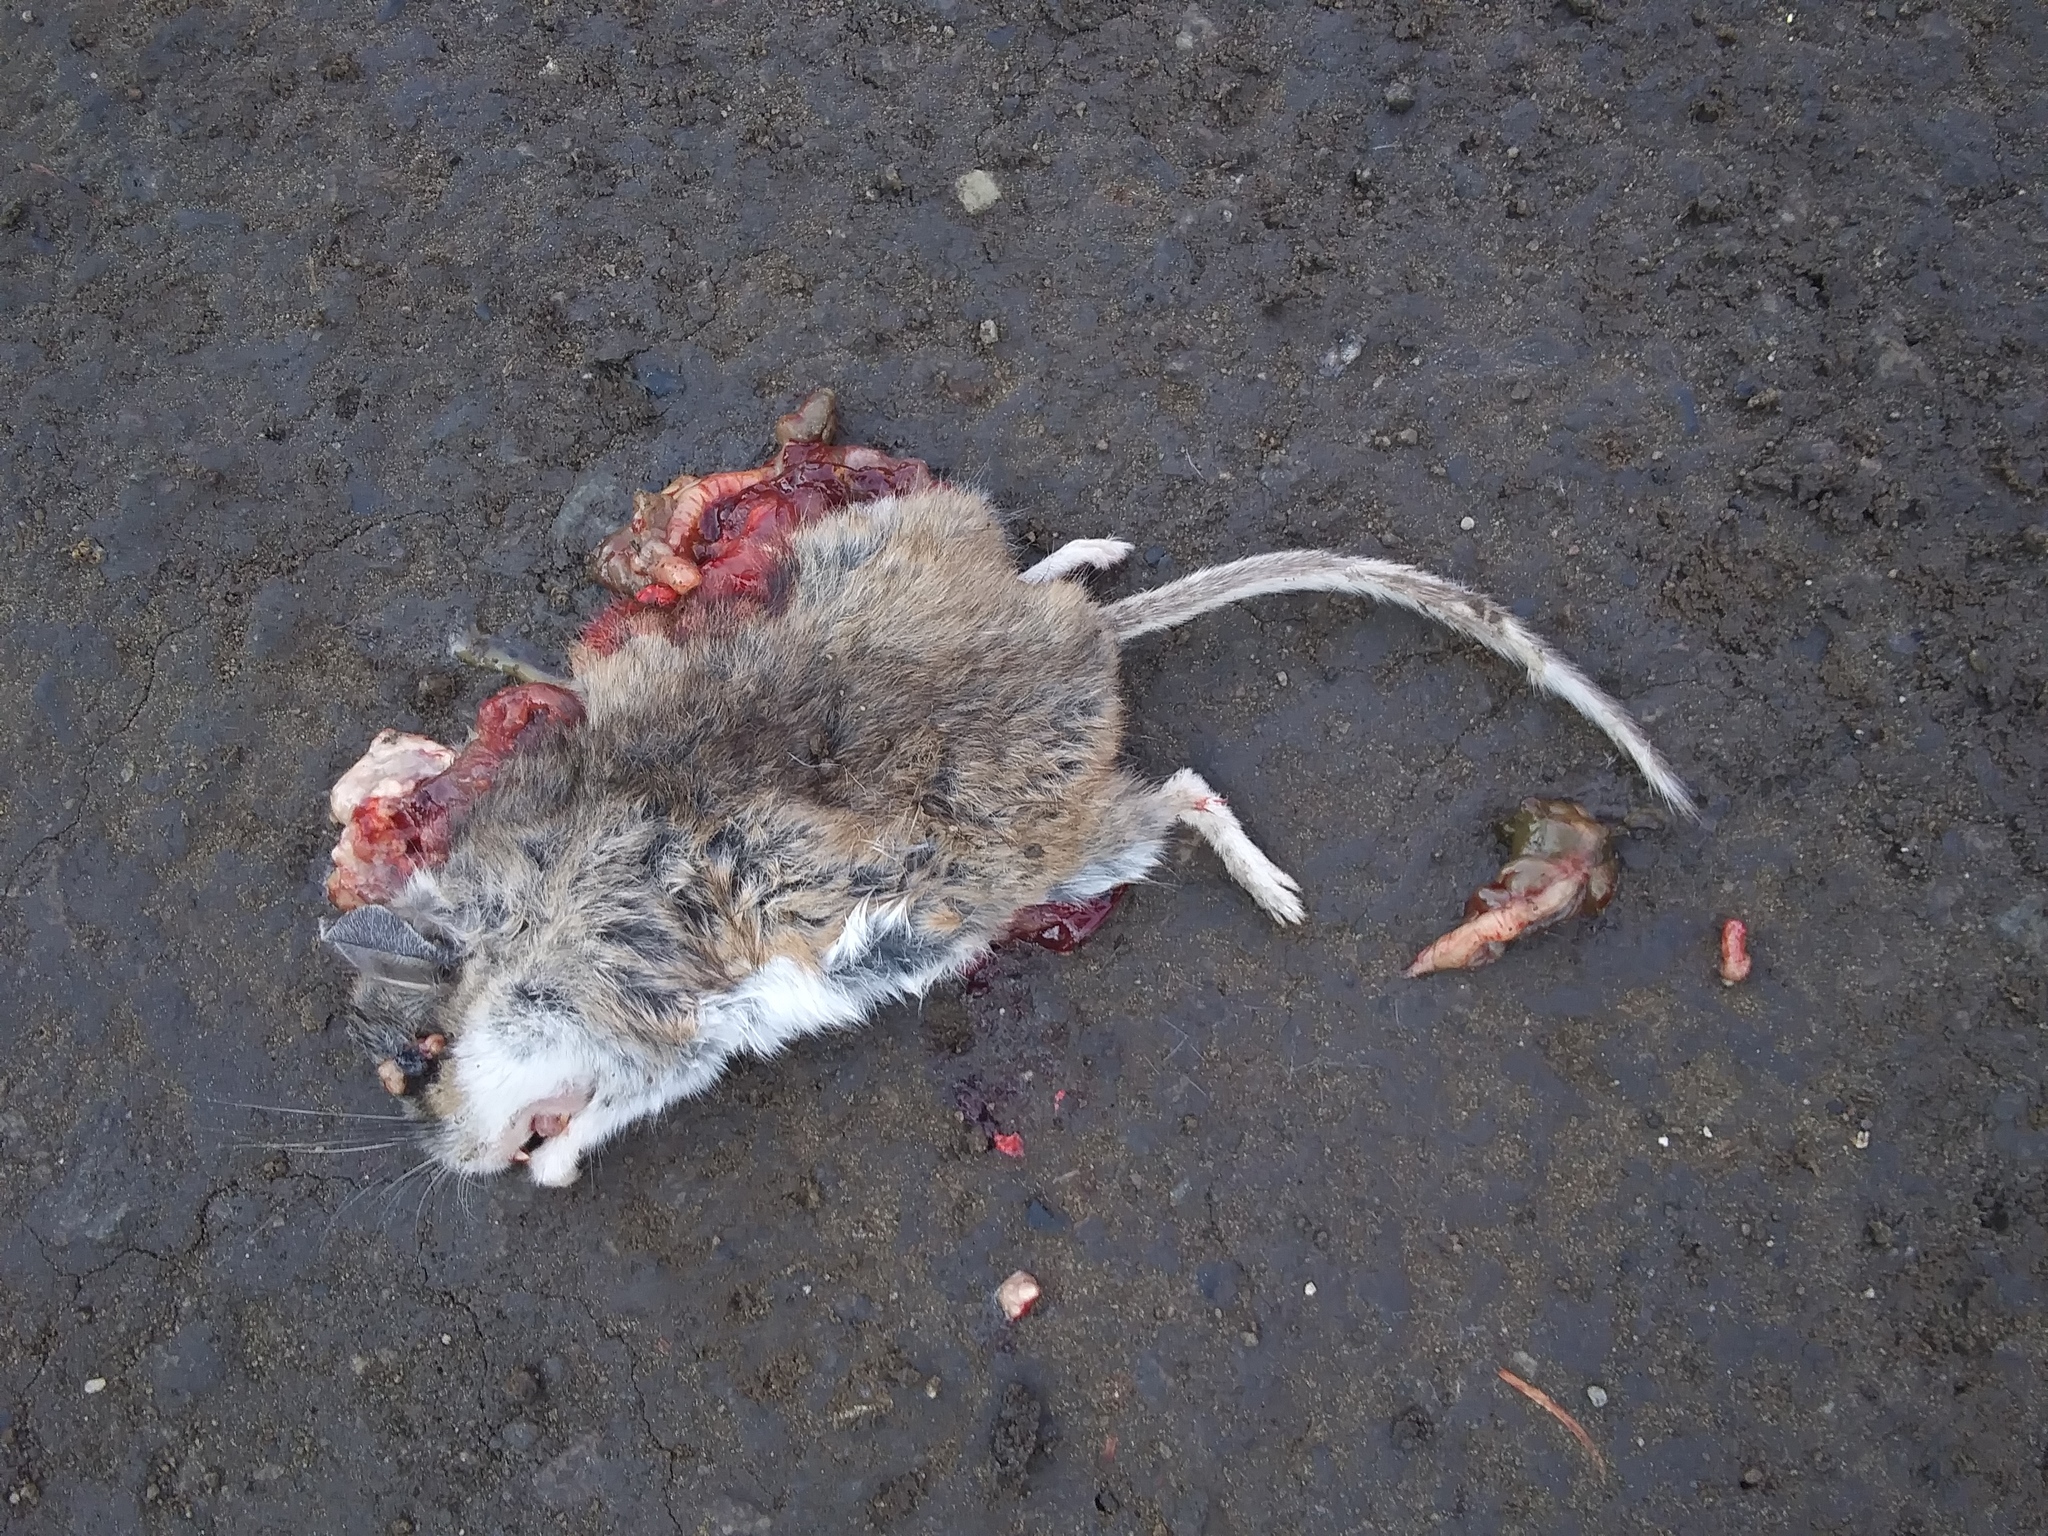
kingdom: Animalia
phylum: Chordata
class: Mammalia
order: Rodentia
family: Cricetidae
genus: Peromyscus
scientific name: Peromyscus maniculatus
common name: Deer mouse
